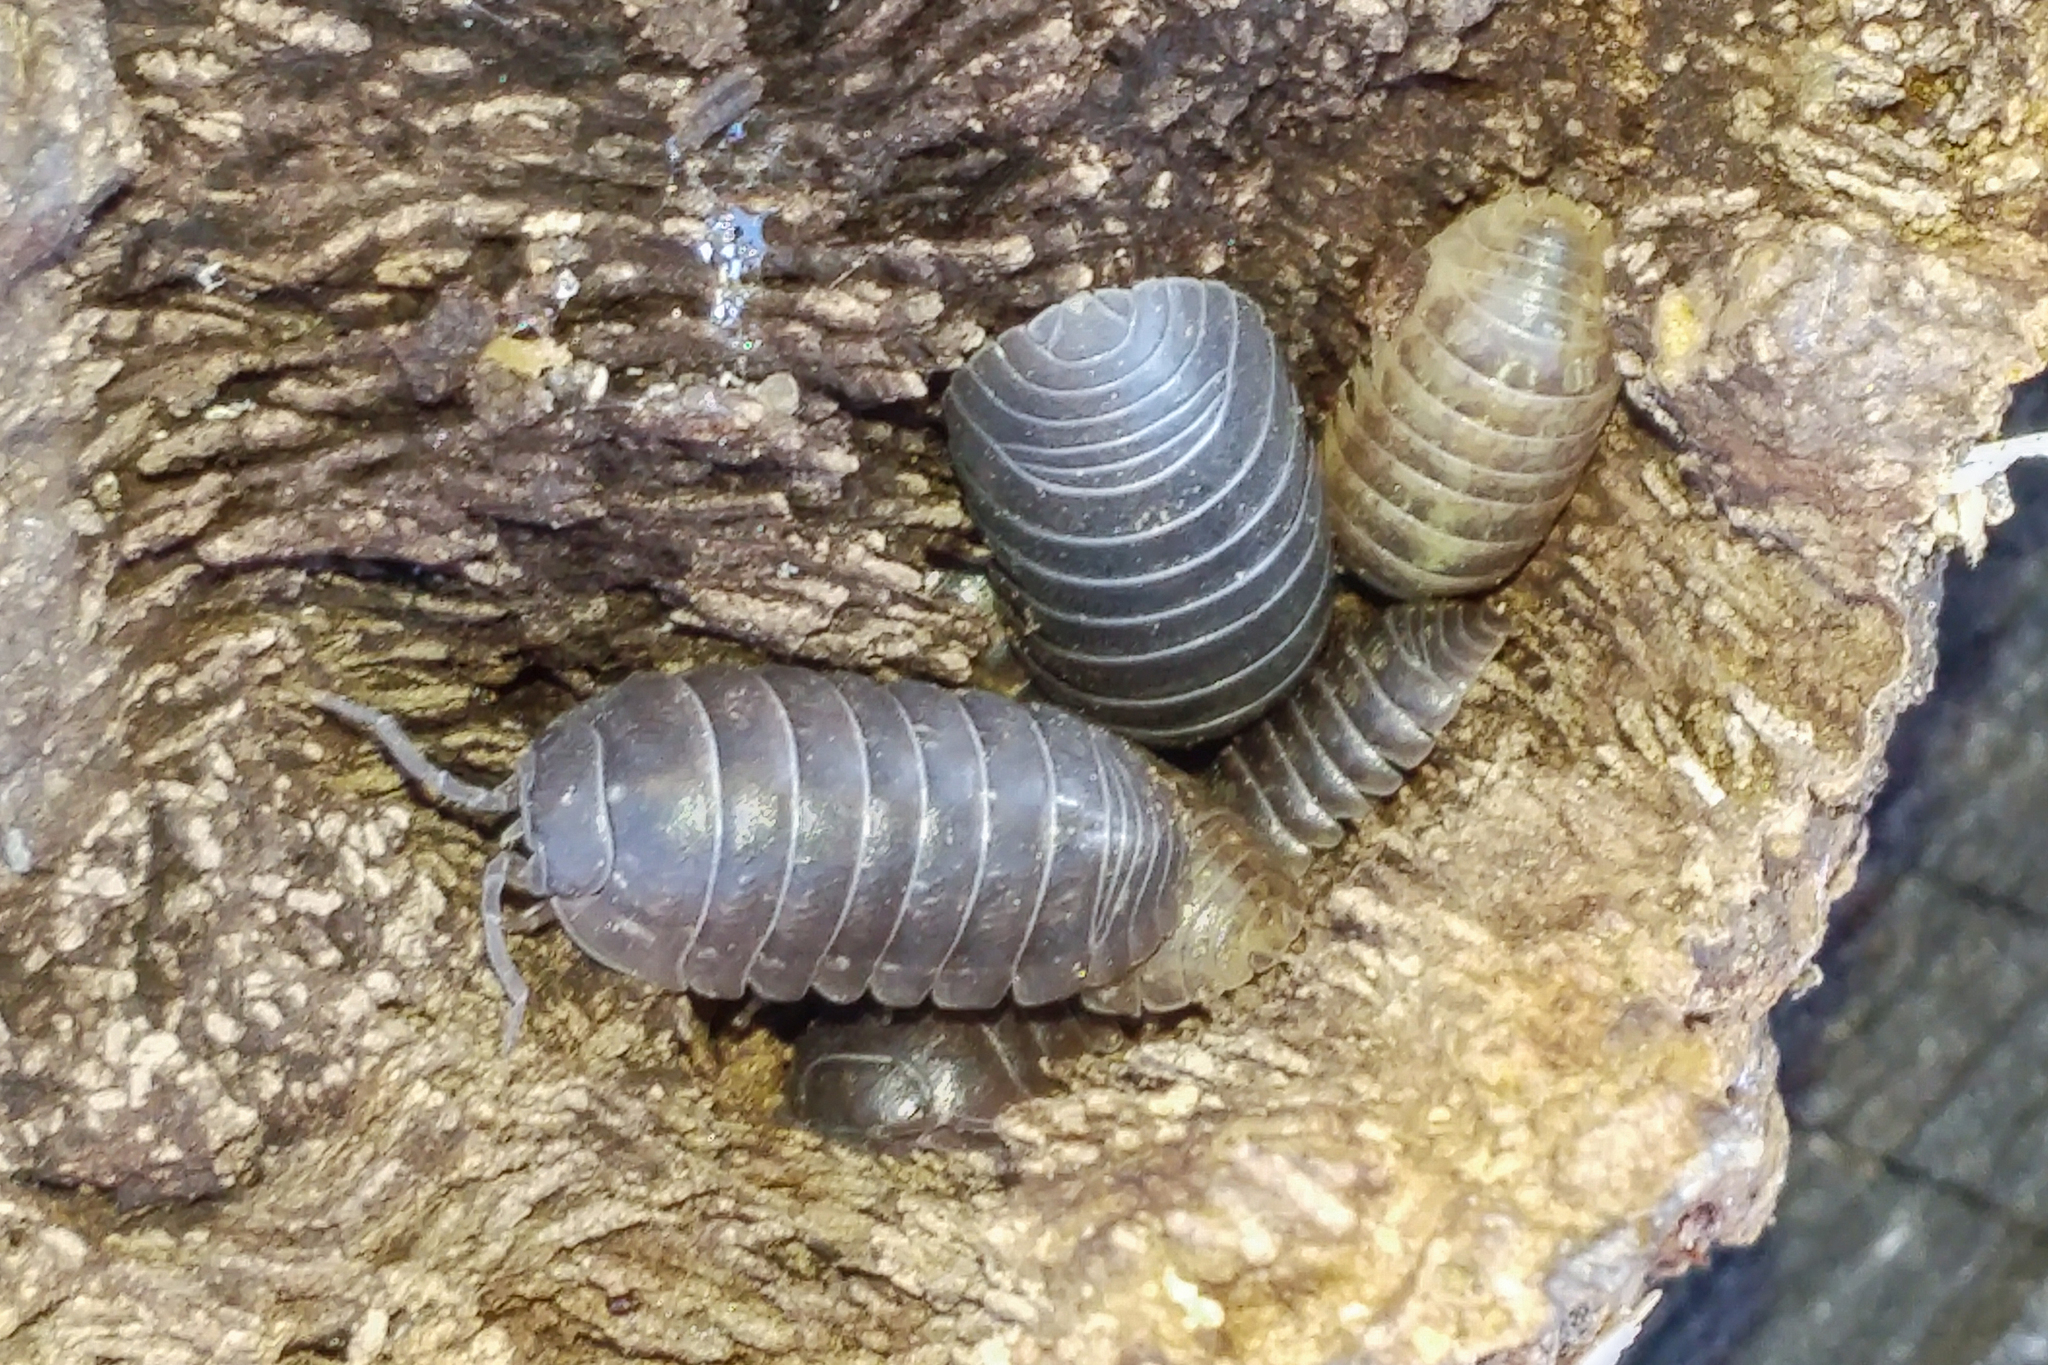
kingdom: Animalia
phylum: Arthropoda
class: Malacostraca
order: Isopoda
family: Armadillidiidae
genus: Armadillidium
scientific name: Armadillidium vulgare
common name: Common pill woodlouse
